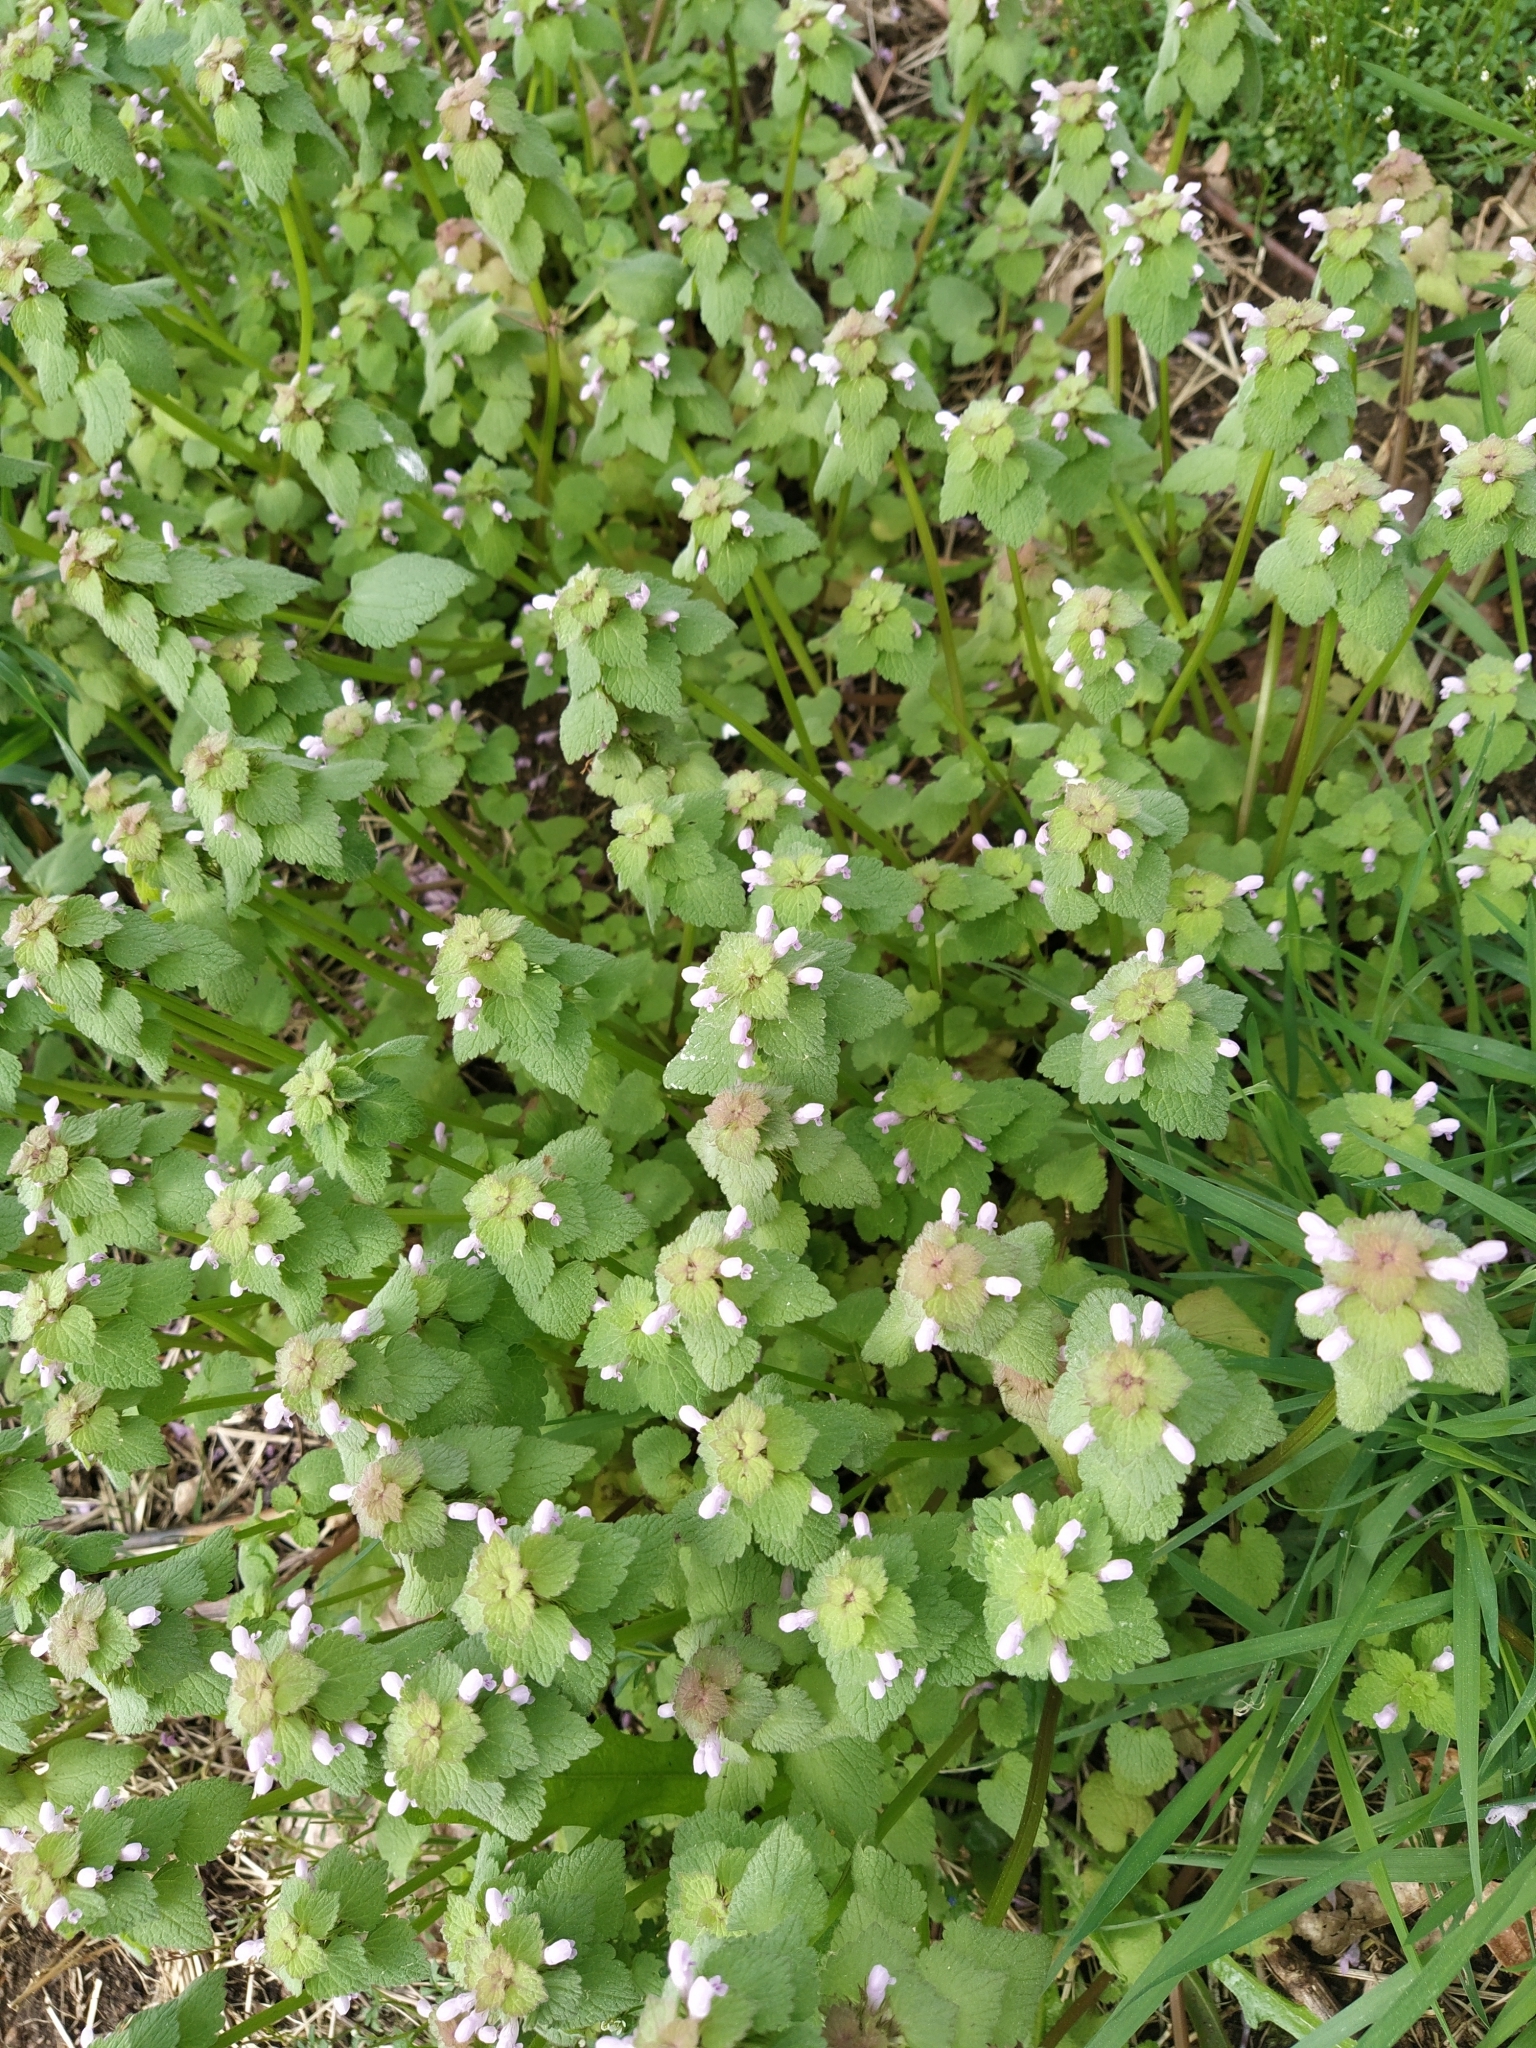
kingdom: Plantae
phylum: Tracheophyta
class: Magnoliopsida
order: Lamiales
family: Lamiaceae
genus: Lamium
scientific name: Lamium purpureum
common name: Red dead-nettle
